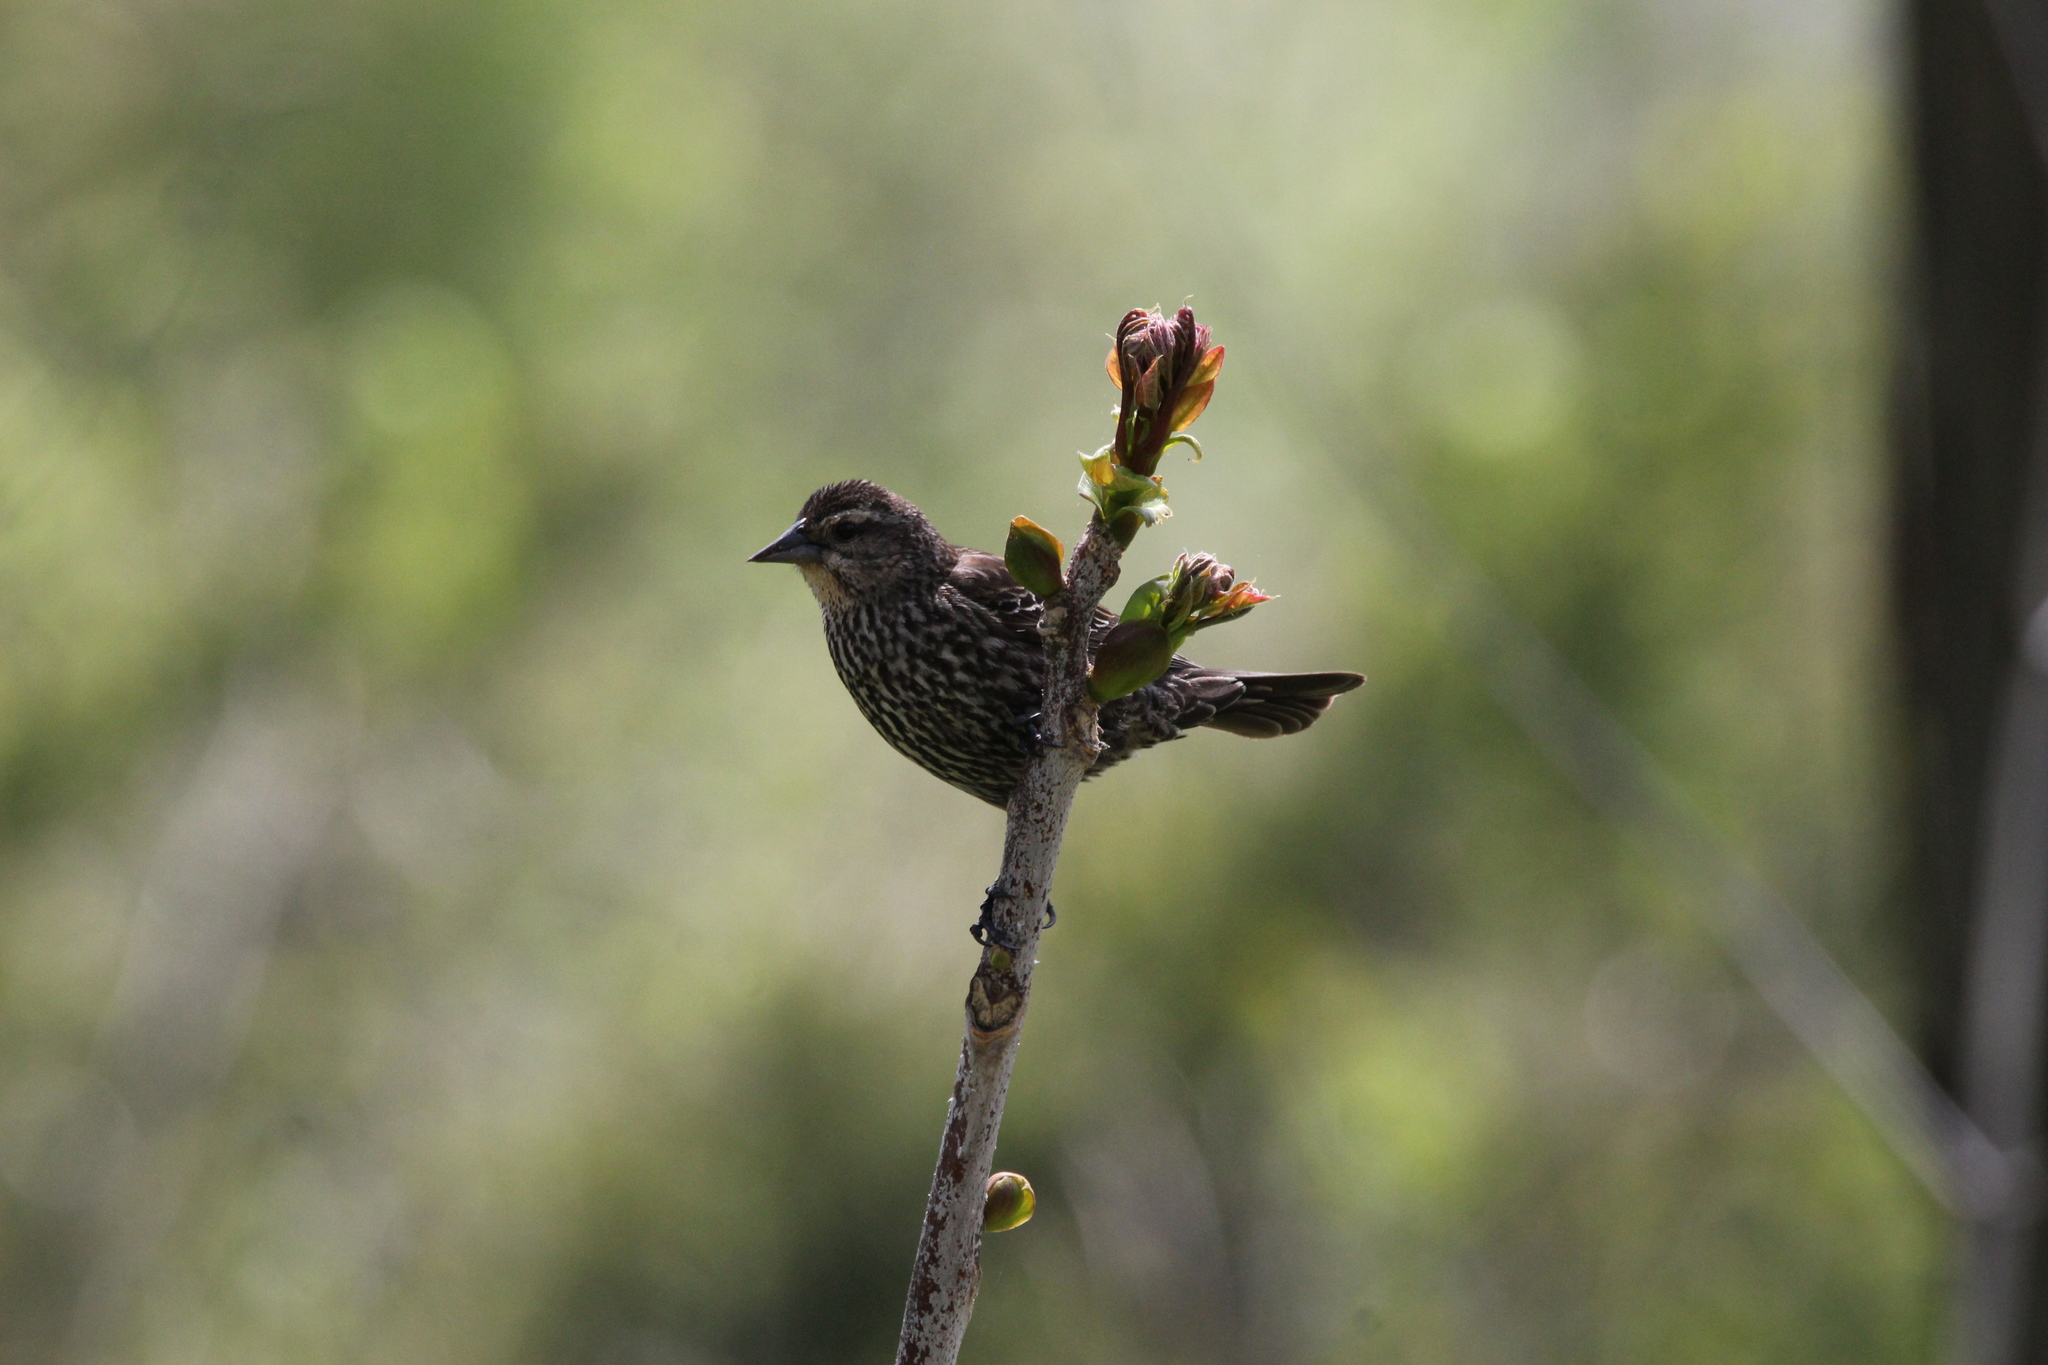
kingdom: Animalia
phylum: Chordata
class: Aves
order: Passeriformes
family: Icteridae
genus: Agelaius
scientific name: Agelaius phoeniceus
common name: Red-winged blackbird
